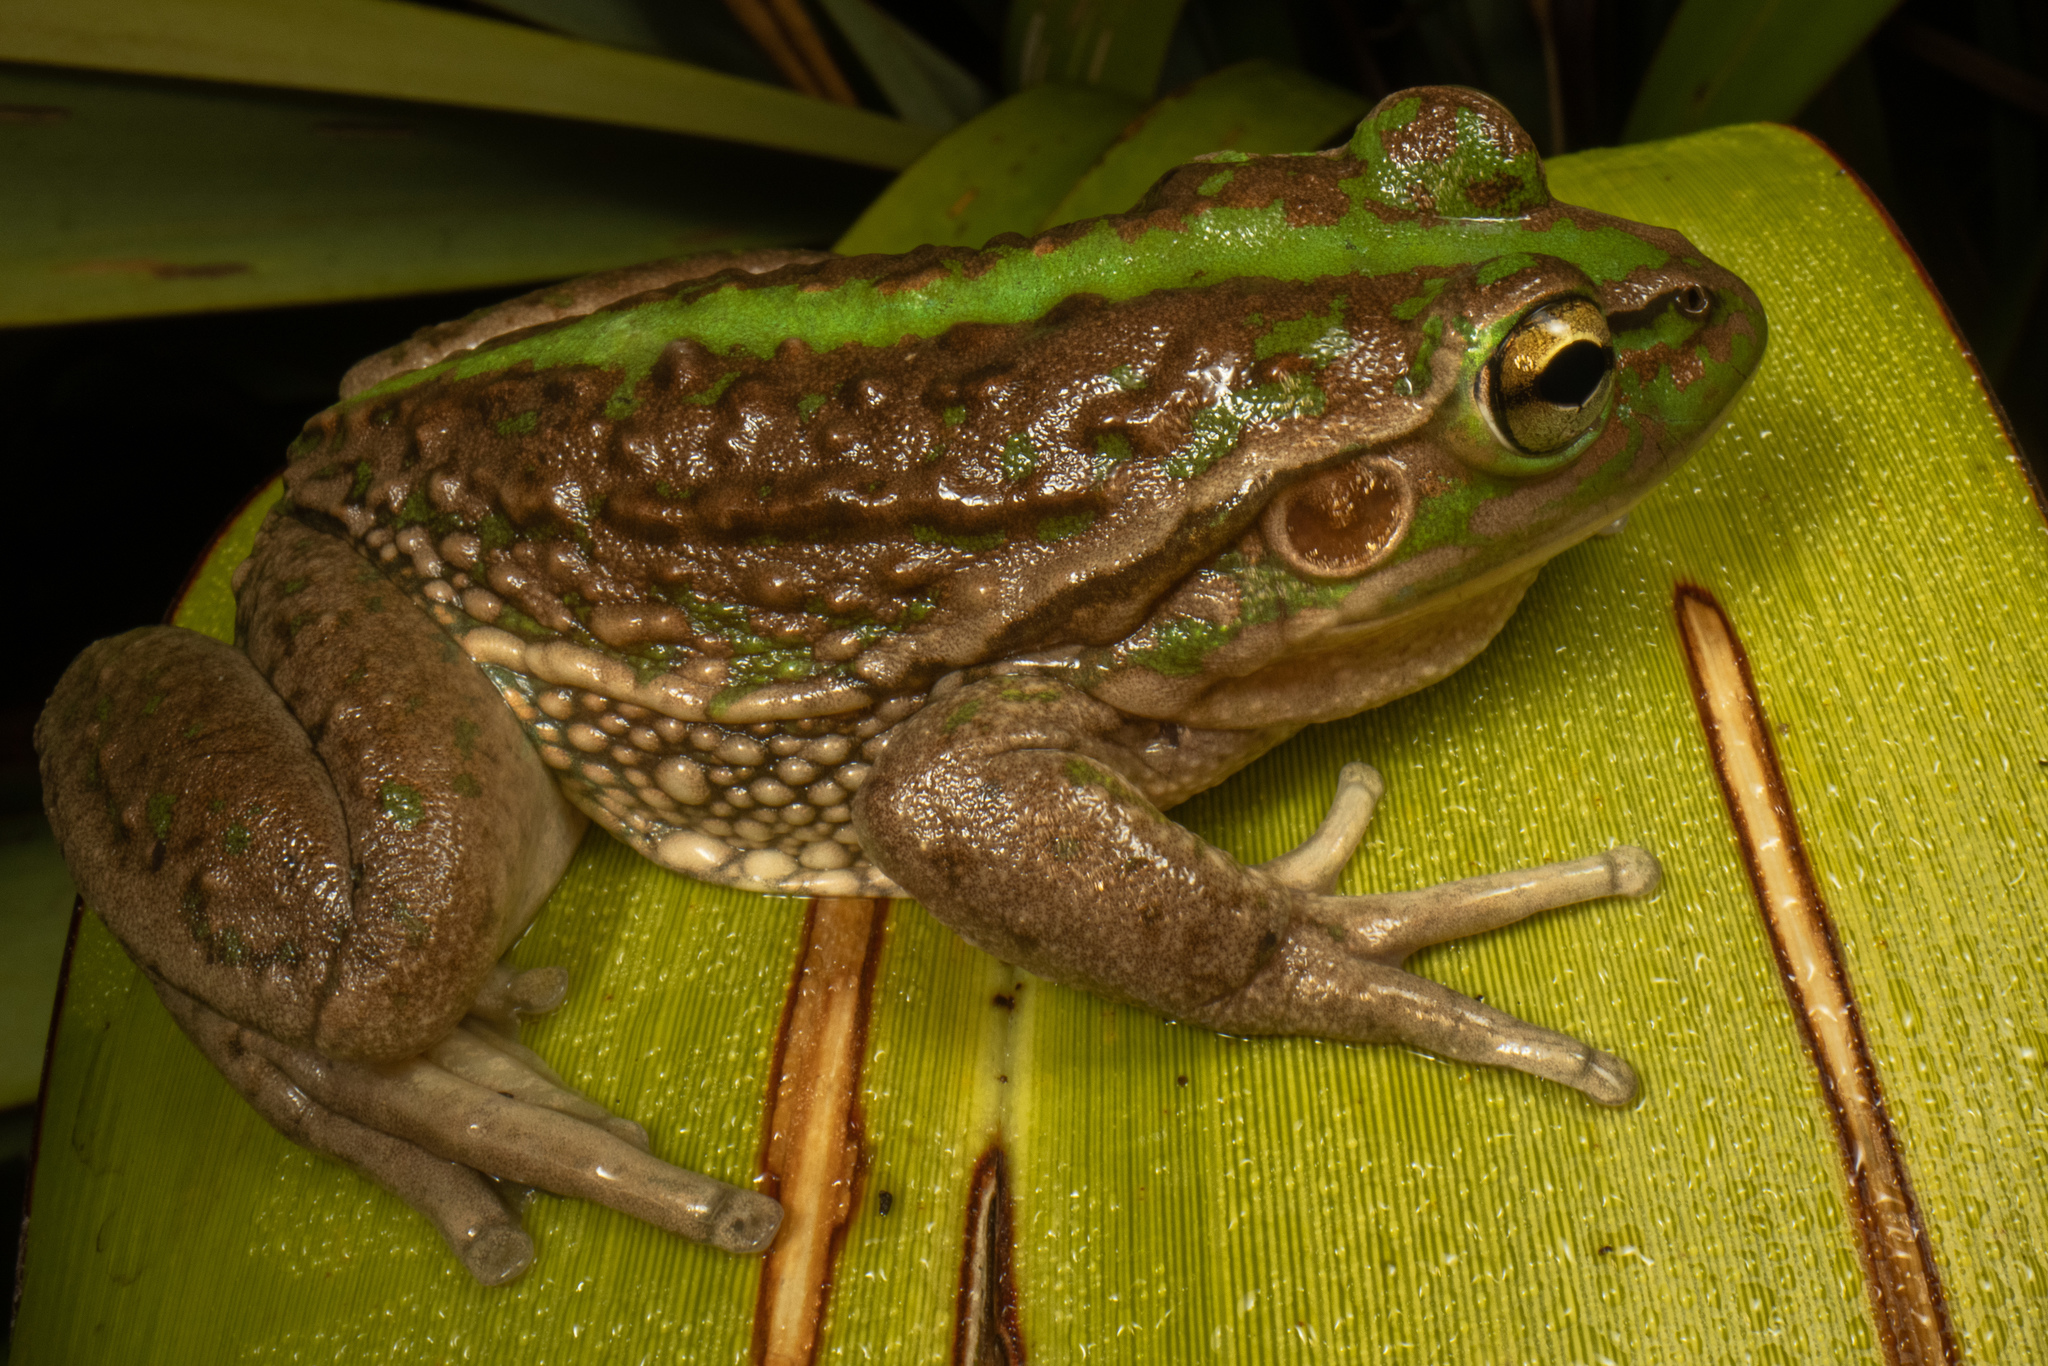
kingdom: Animalia
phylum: Chordata
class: Amphibia
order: Anura
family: Pelodryadidae
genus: Ranoidea
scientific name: Ranoidea raniformis
